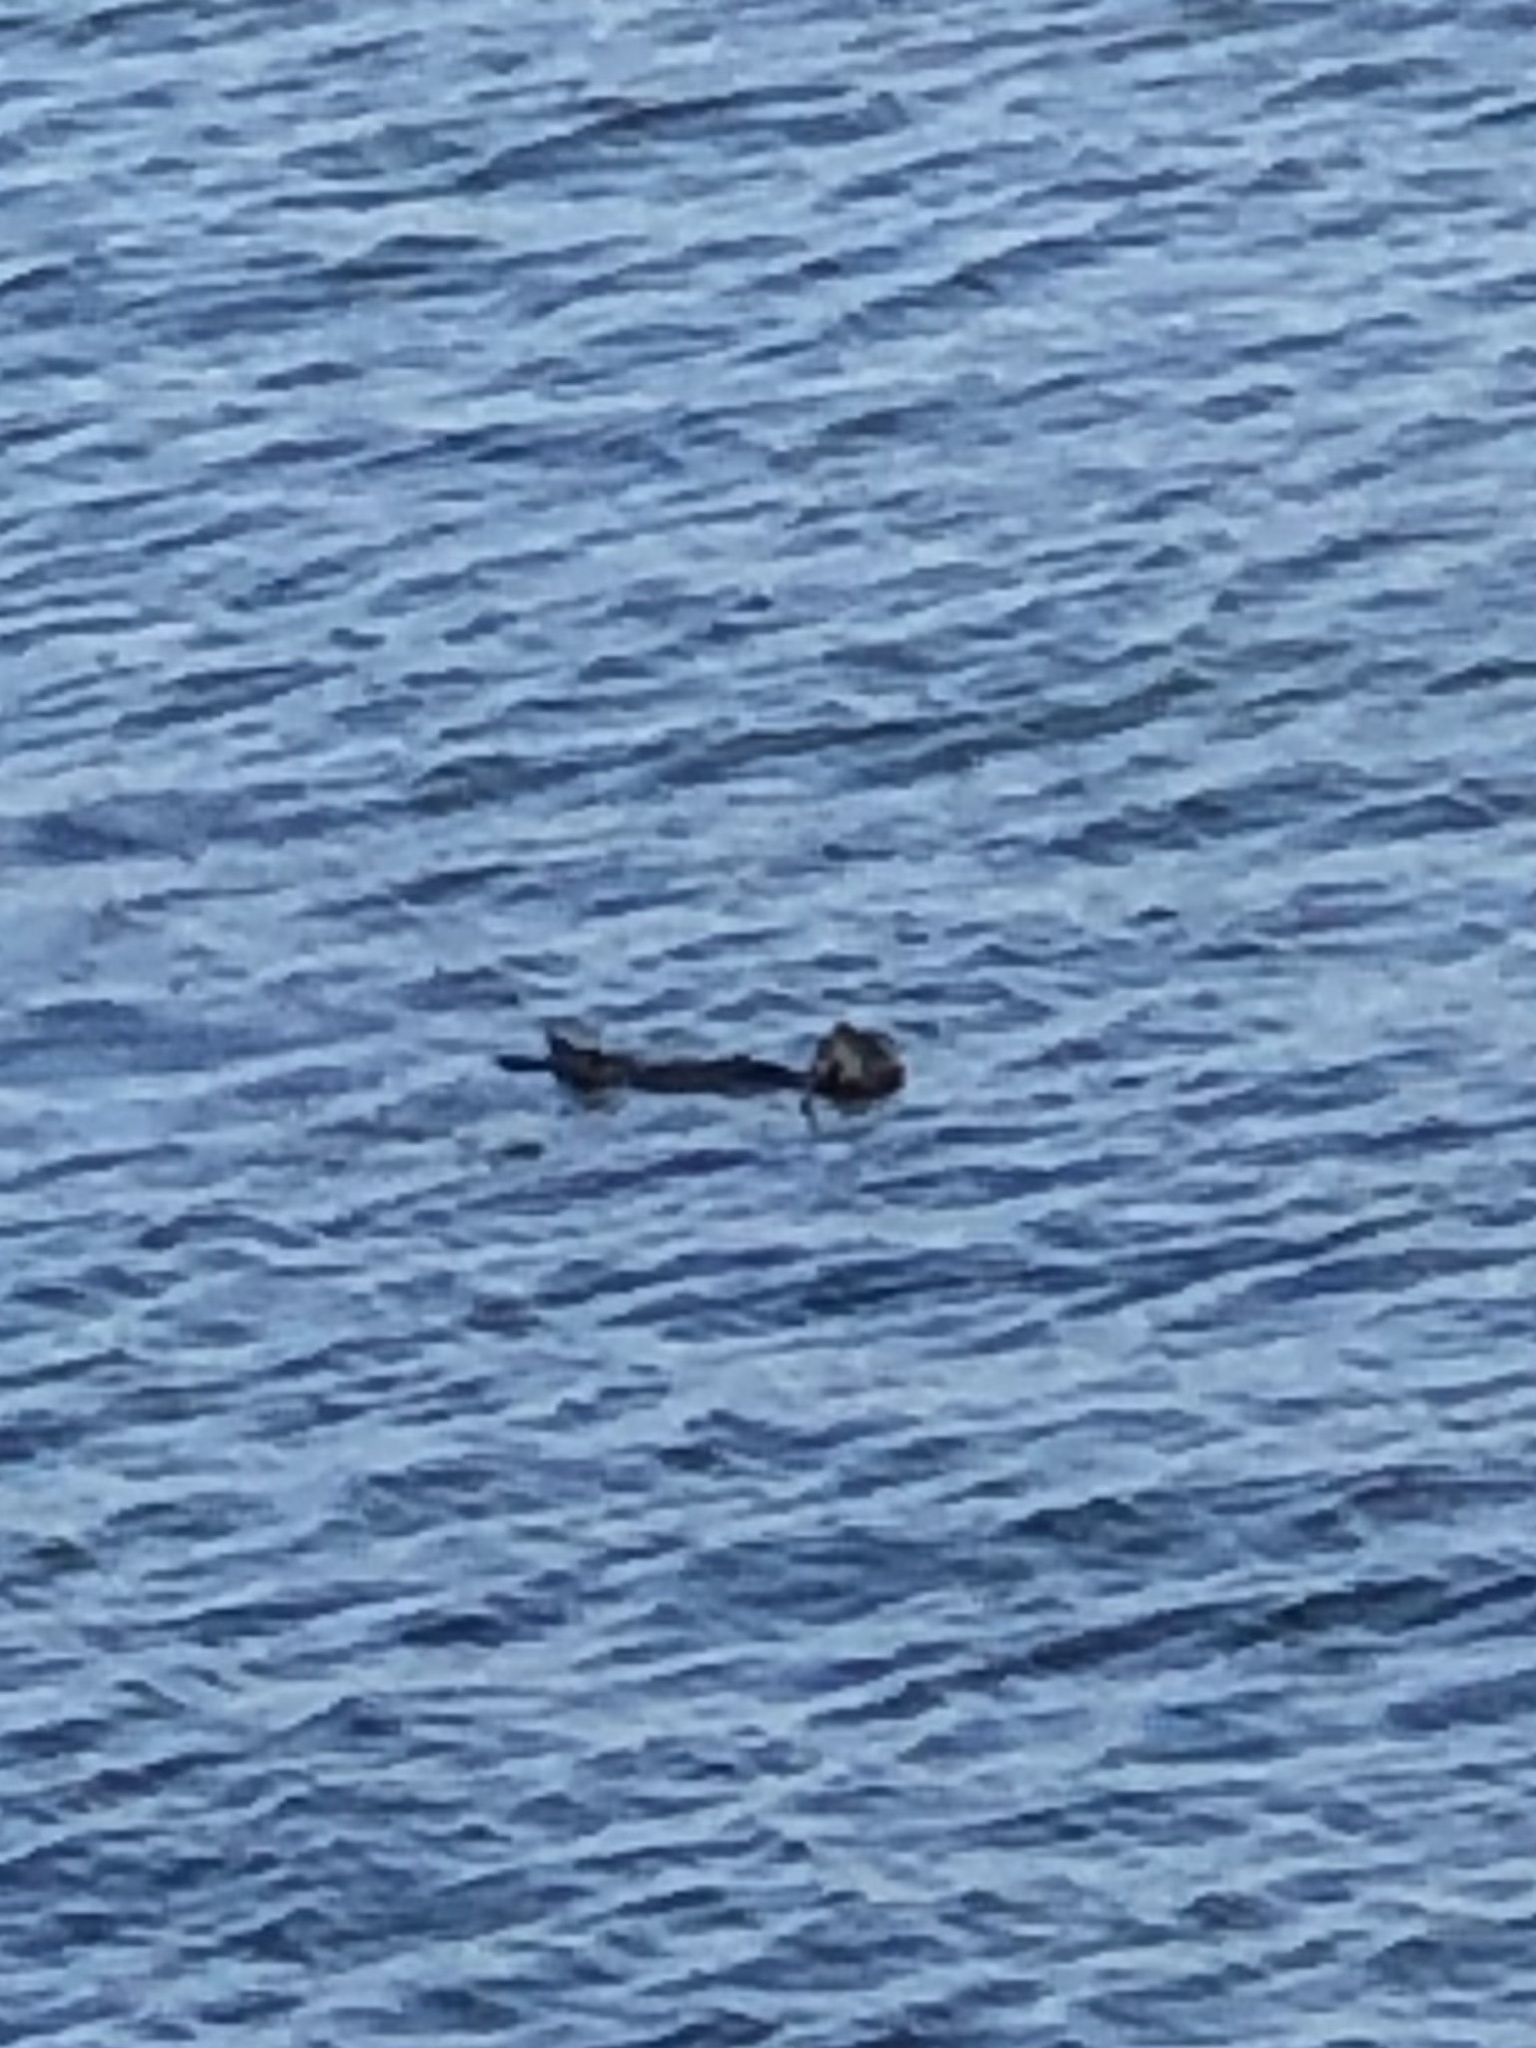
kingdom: Animalia
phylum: Chordata
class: Mammalia
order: Carnivora
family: Mustelidae
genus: Enhydra
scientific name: Enhydra lutris
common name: Sea otter
